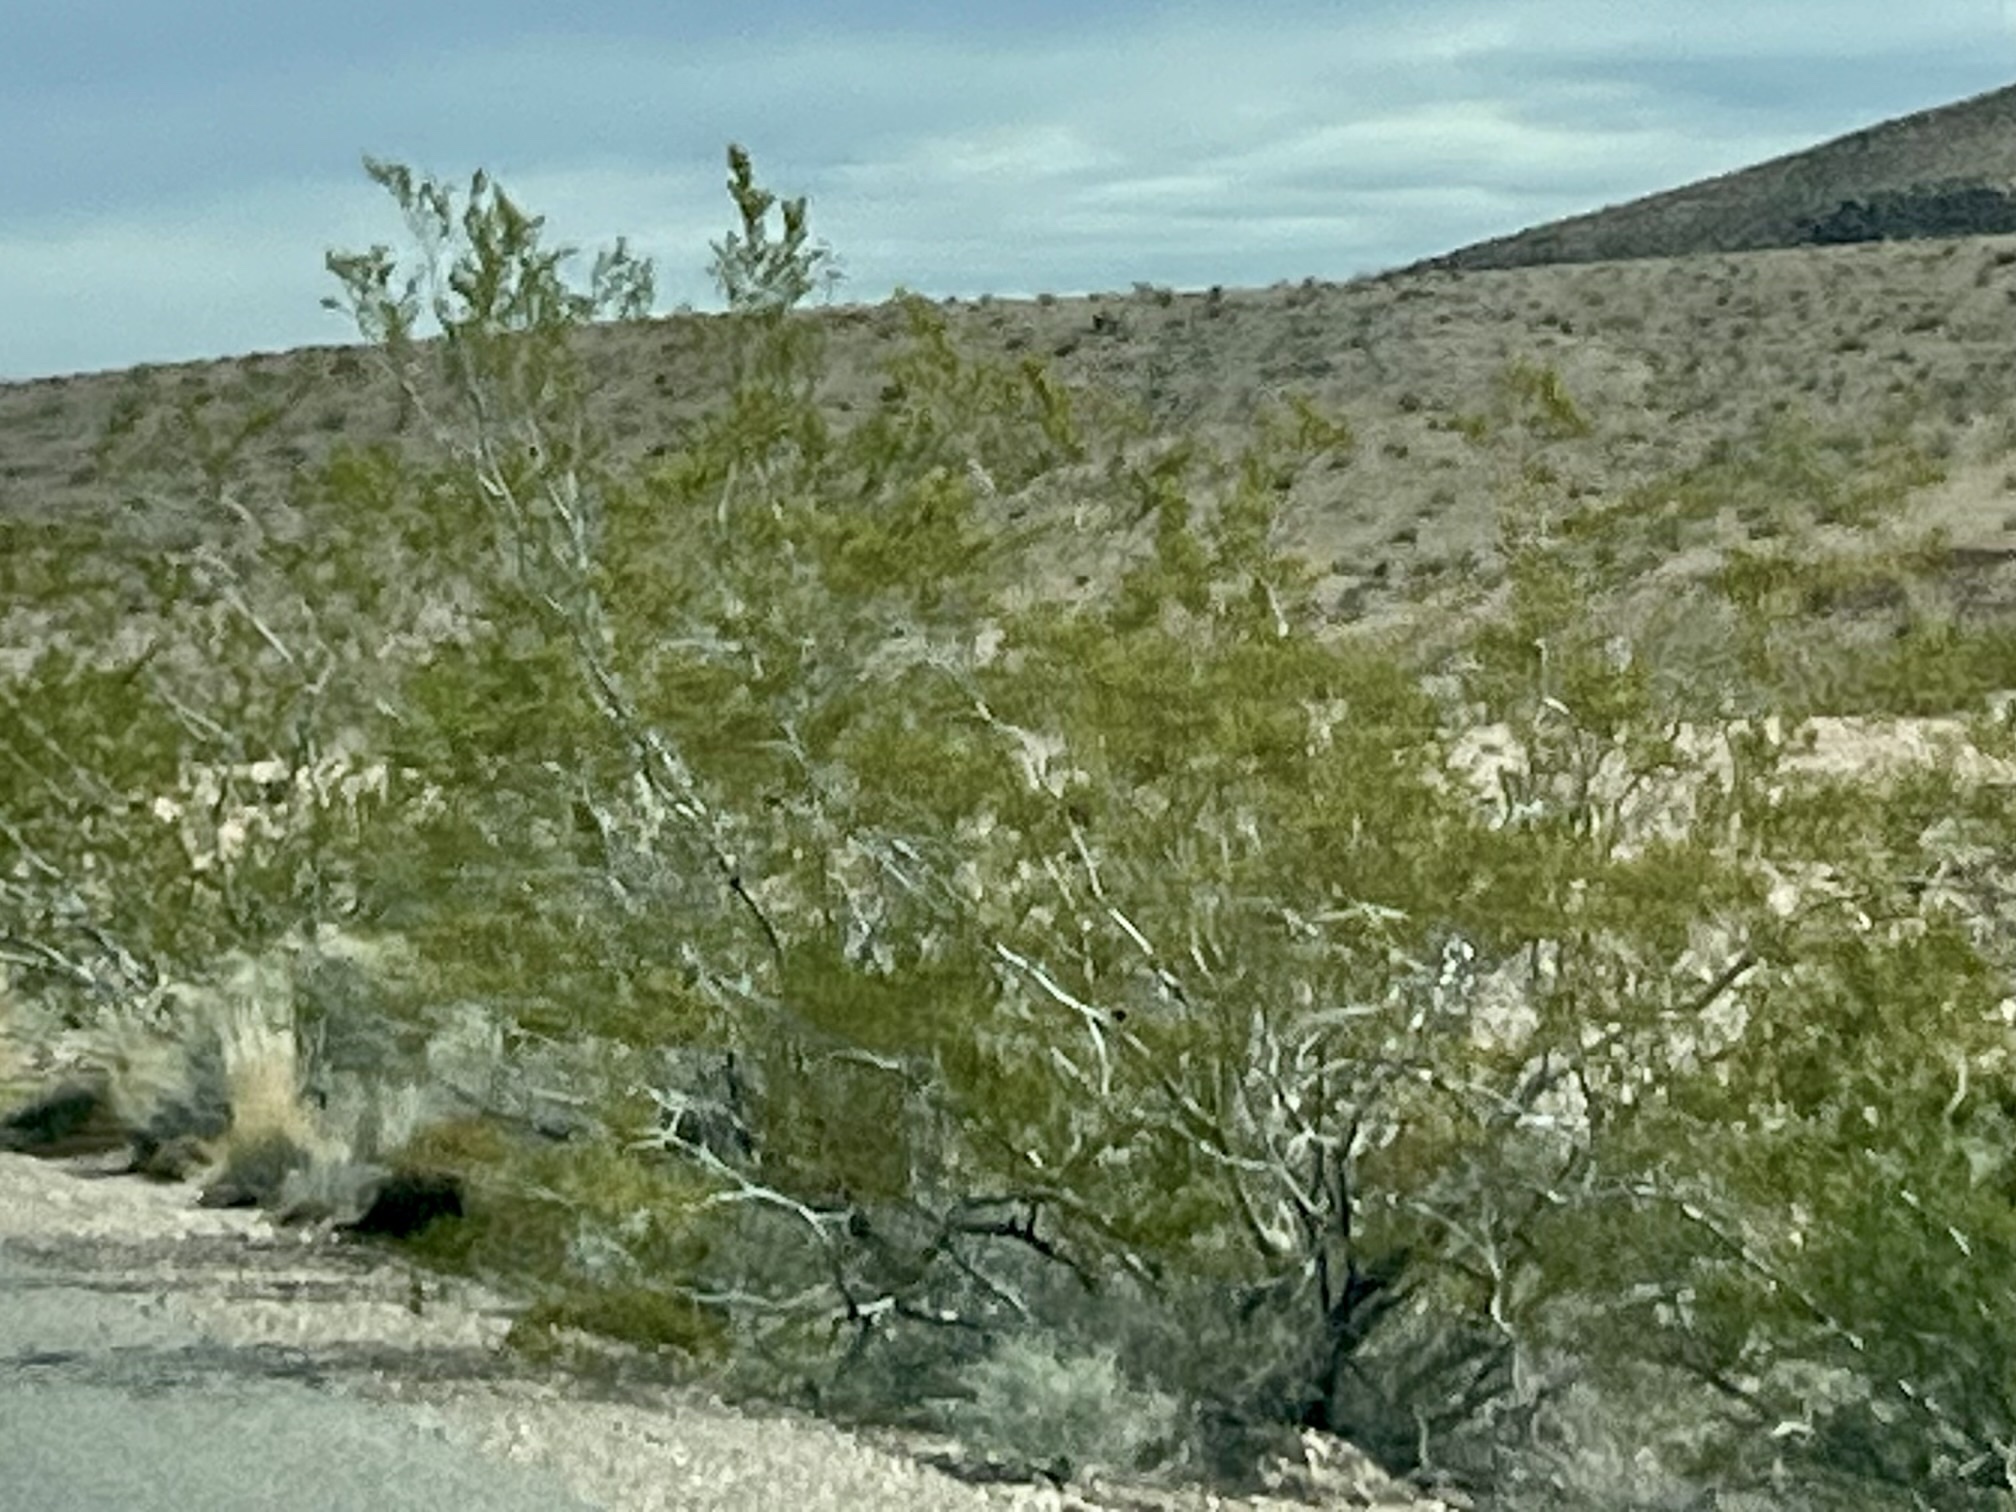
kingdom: Plantae
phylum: Tracheophyta
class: Magnoliopsida
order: Zygophyllales
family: Zygophyllaceae
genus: Larrea
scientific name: Larrea tridentata
